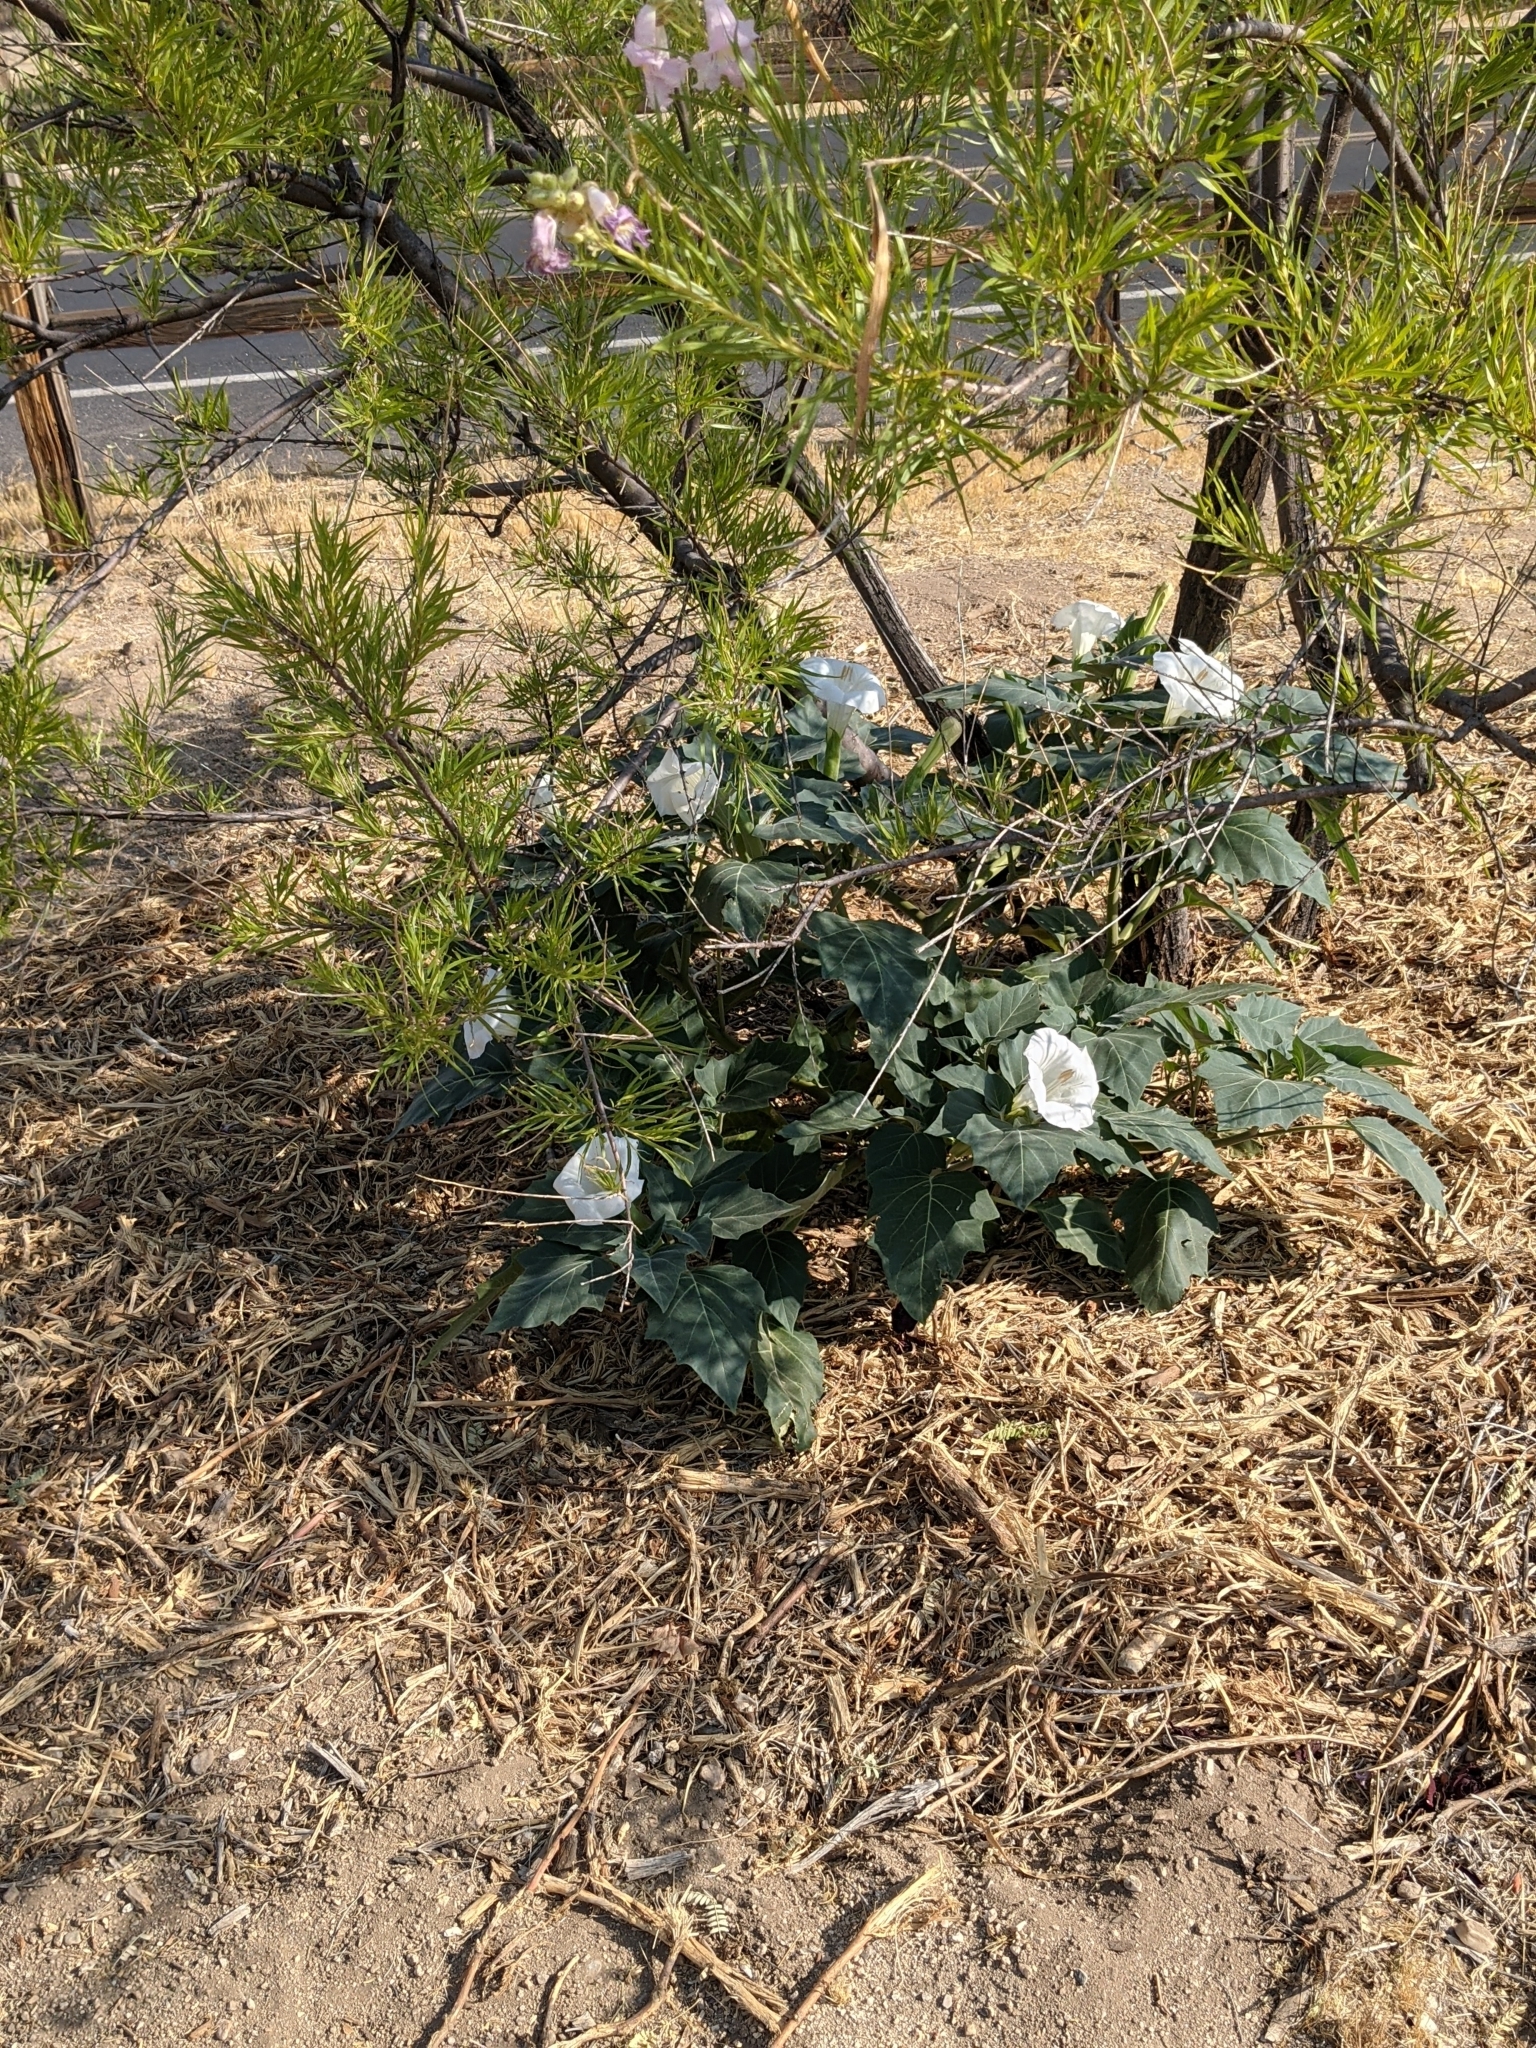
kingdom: Plantae
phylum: Tracheophyta
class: Magnoliopsida
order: Solanales
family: Solanaceae
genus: Datura
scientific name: Datura wrightii
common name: Sacred thorn-apple
